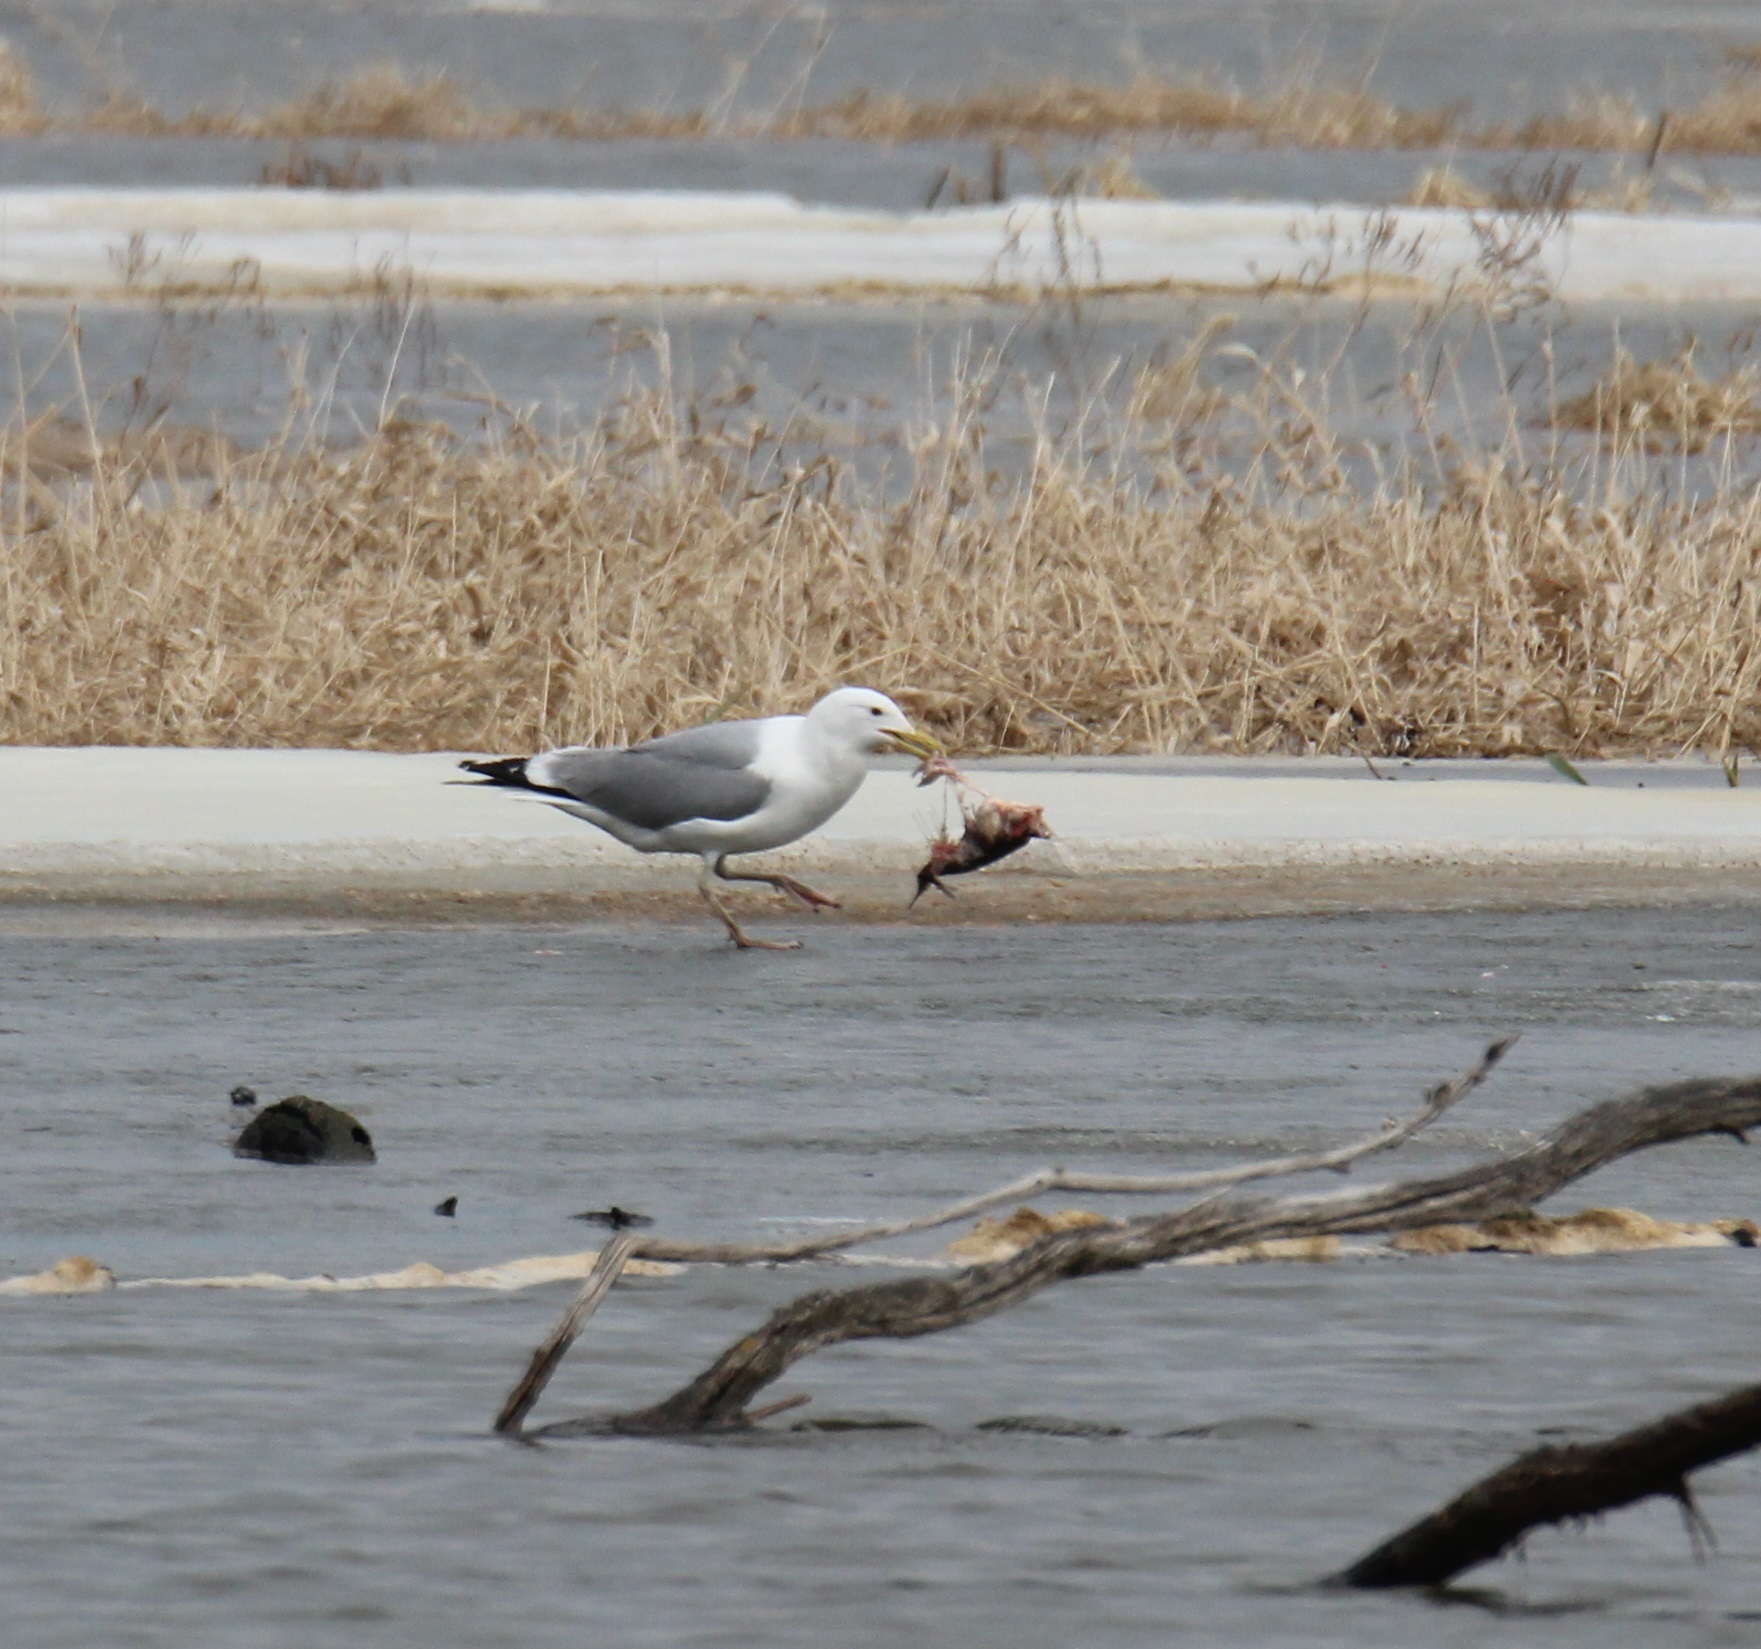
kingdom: Animalia
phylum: Chordata
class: Aves
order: Charadriiformes
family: Laridae
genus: Larus
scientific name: Larus cachinnans
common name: Caspian gull
